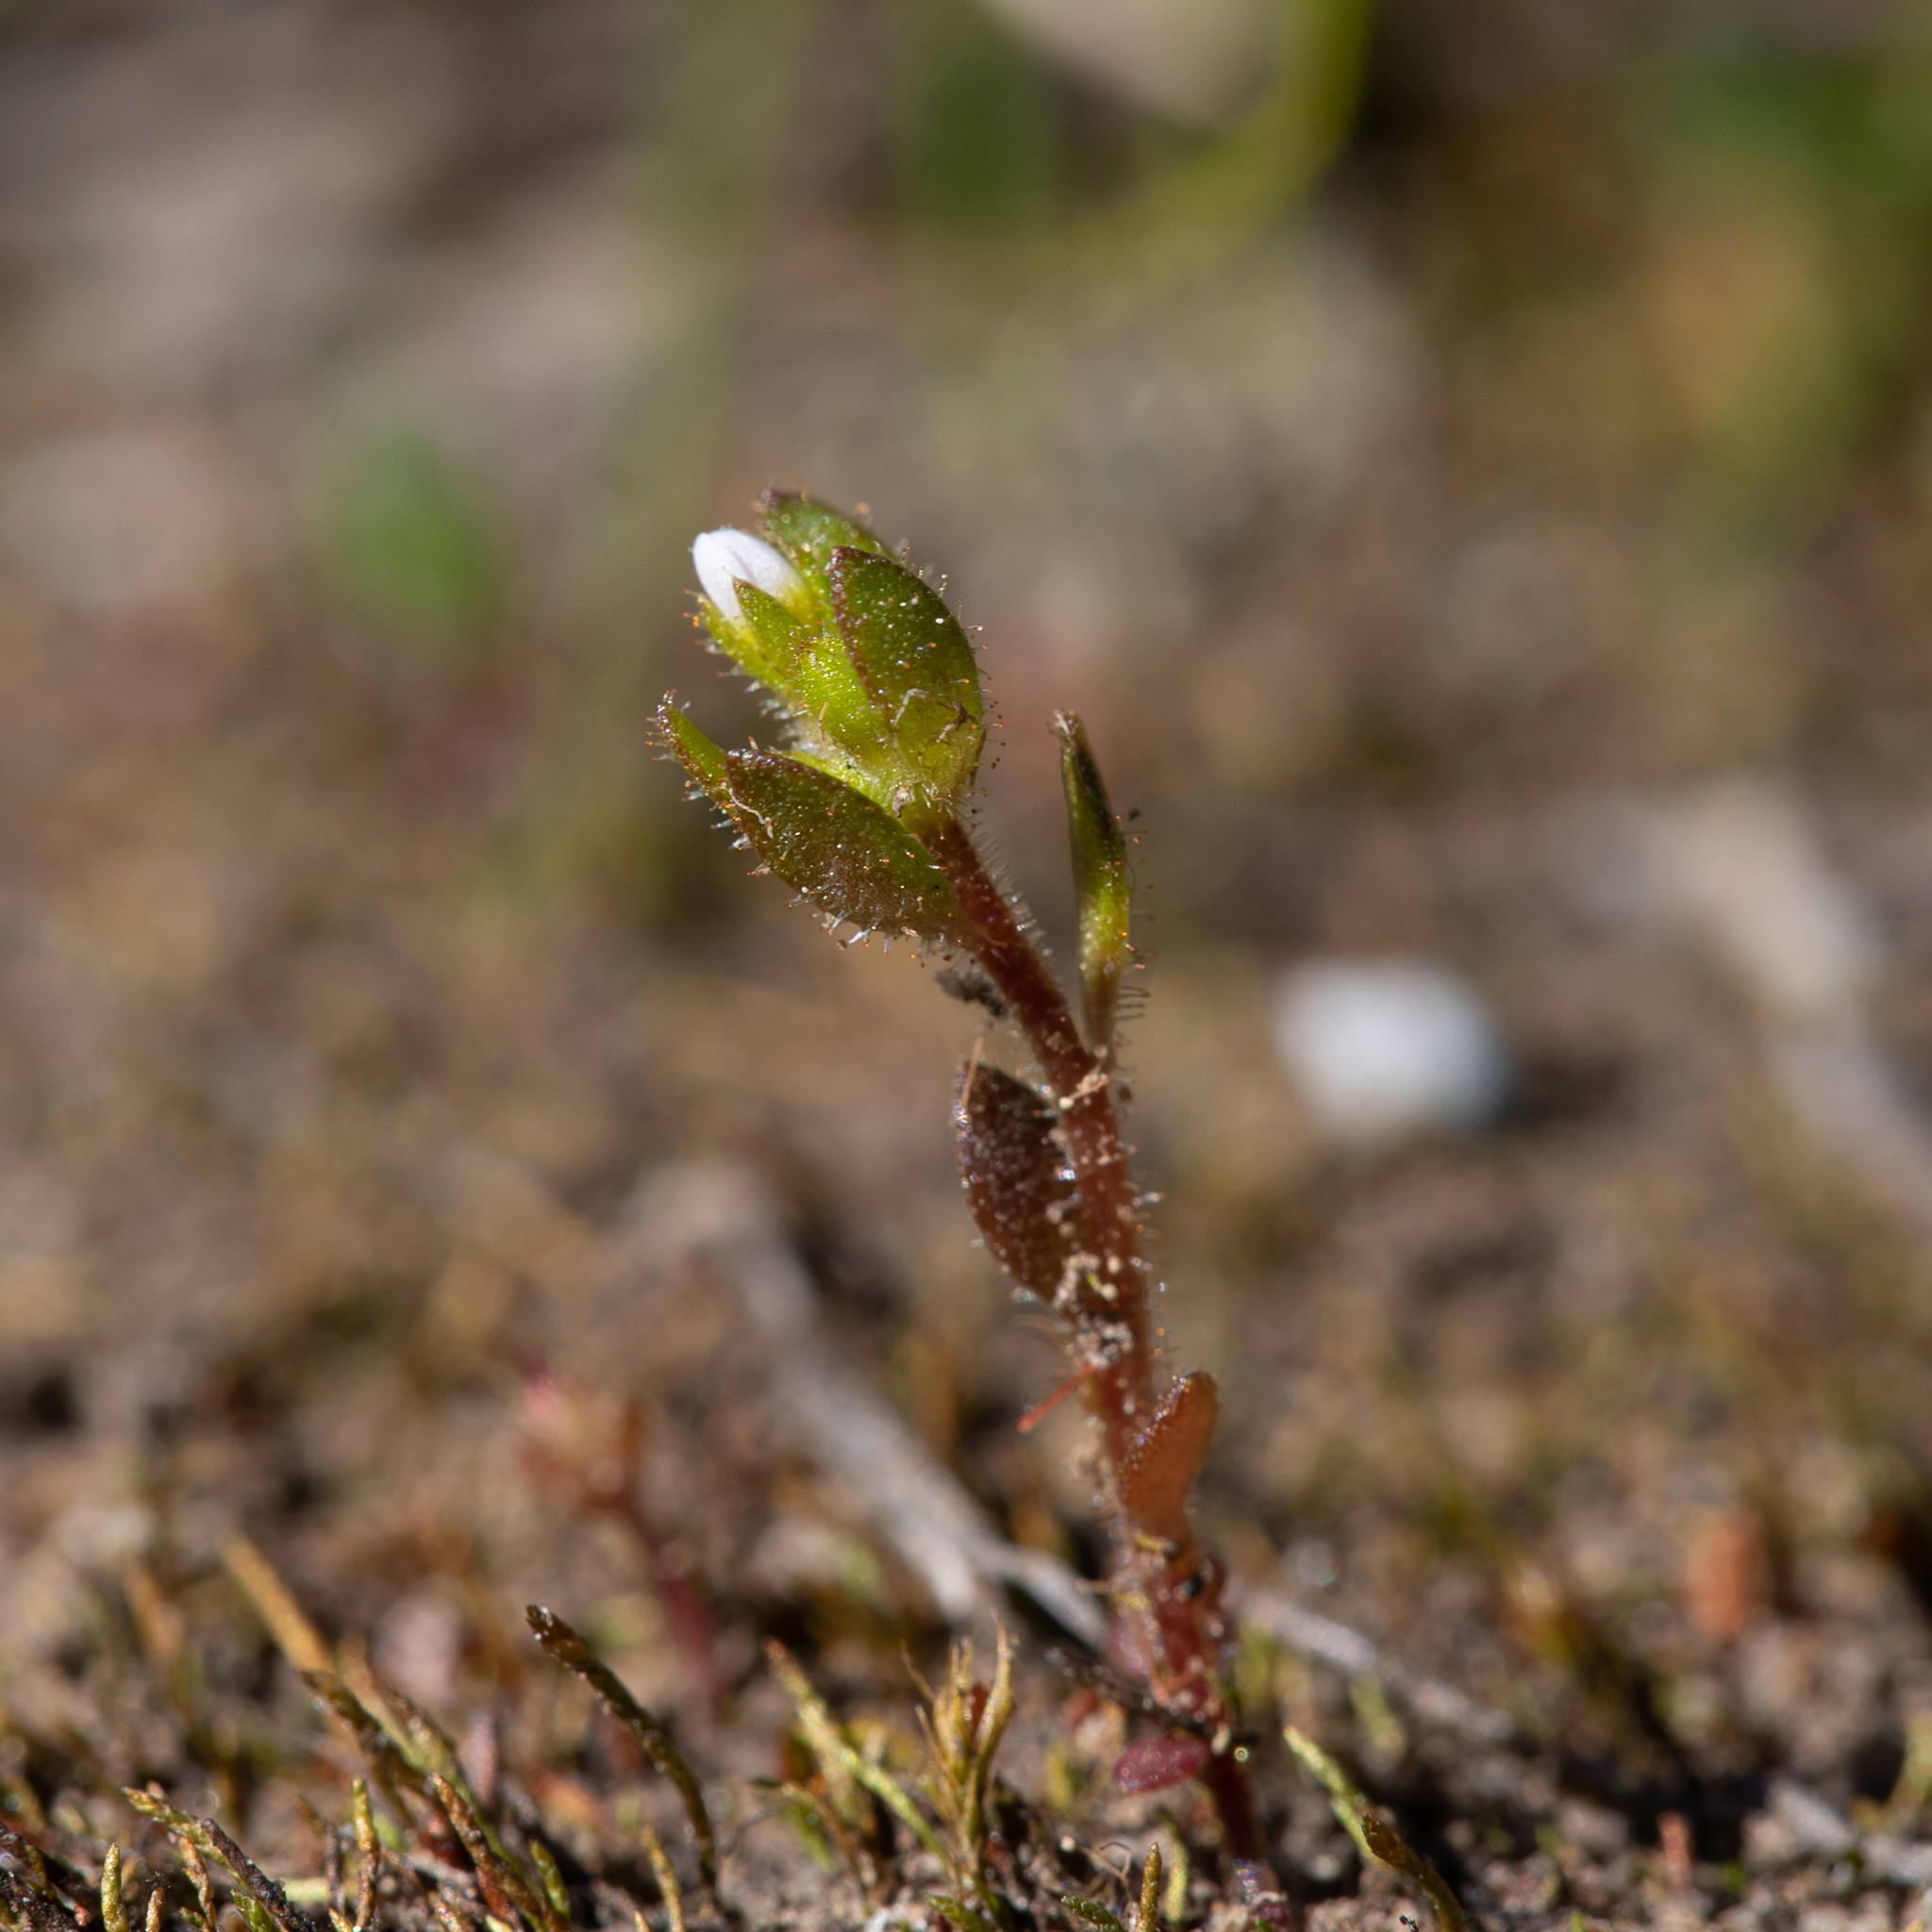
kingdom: Plantae
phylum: Tracheophyta
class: Magnoliopsida
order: Asterales
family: Stylidiaceae
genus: Levenhookia
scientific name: Levenhookia dubia
